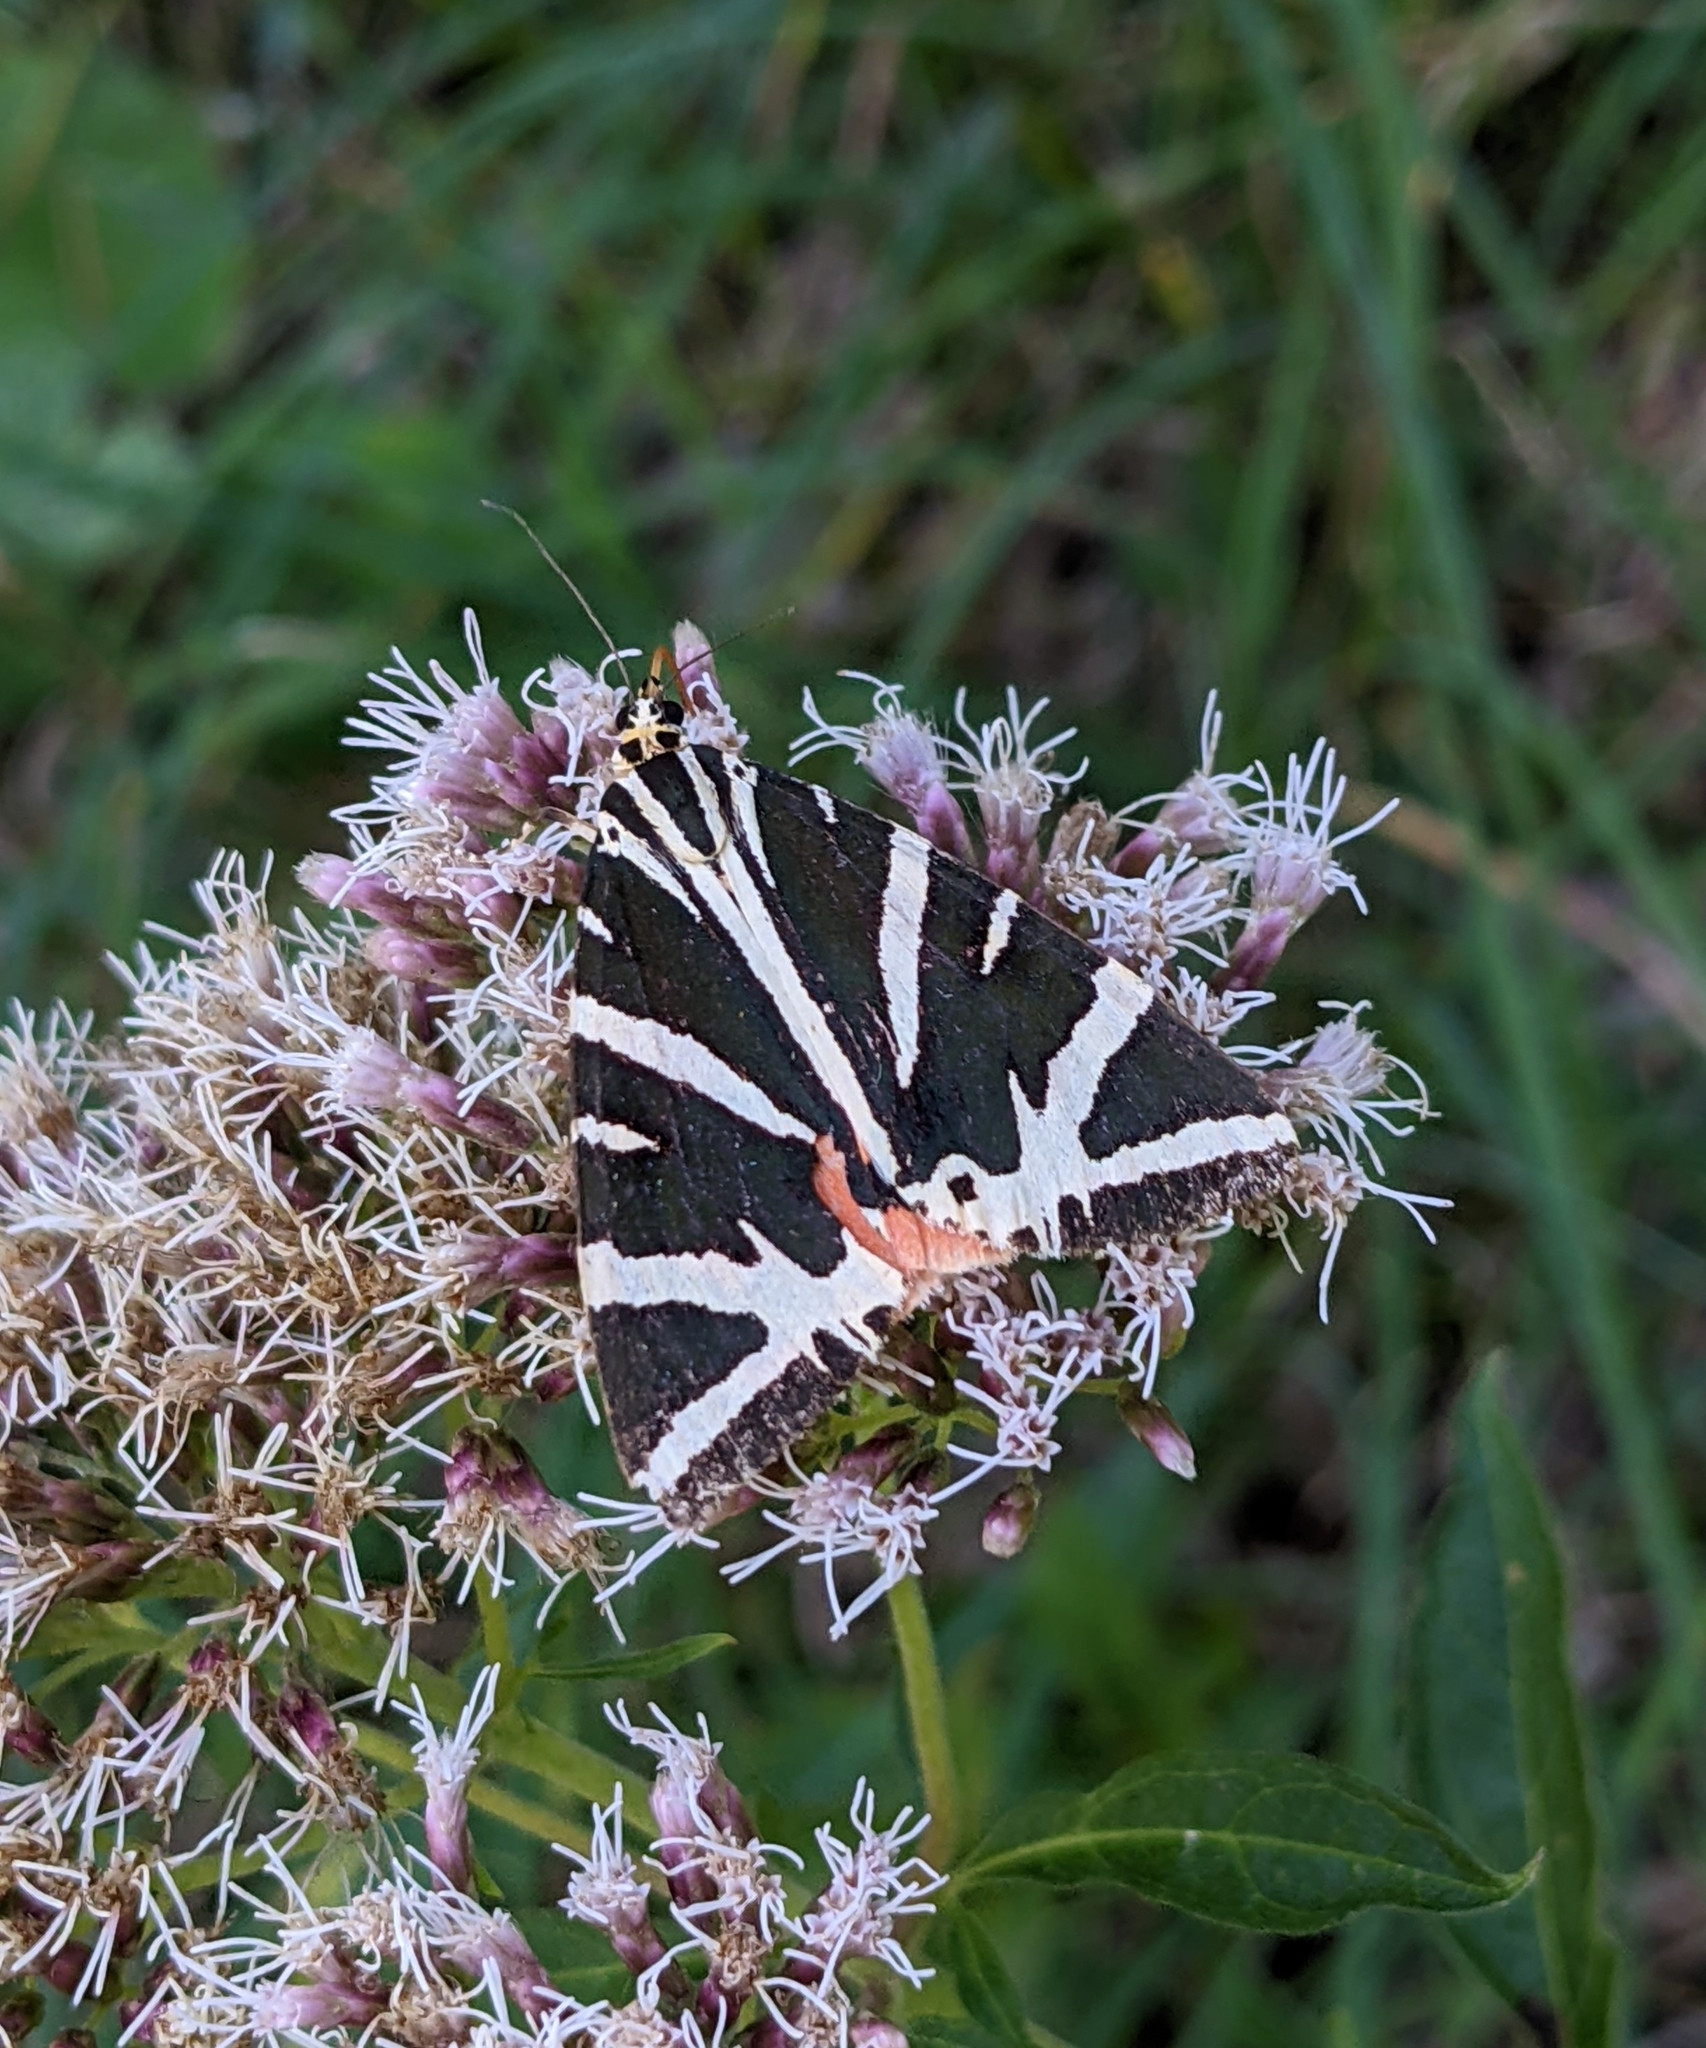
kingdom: Animalia
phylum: Arthropoda
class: Insecta
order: Lepidoptera
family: Erebidae
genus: Euplagia
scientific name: Euplagia quadripunctaria
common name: Jersey tiger
